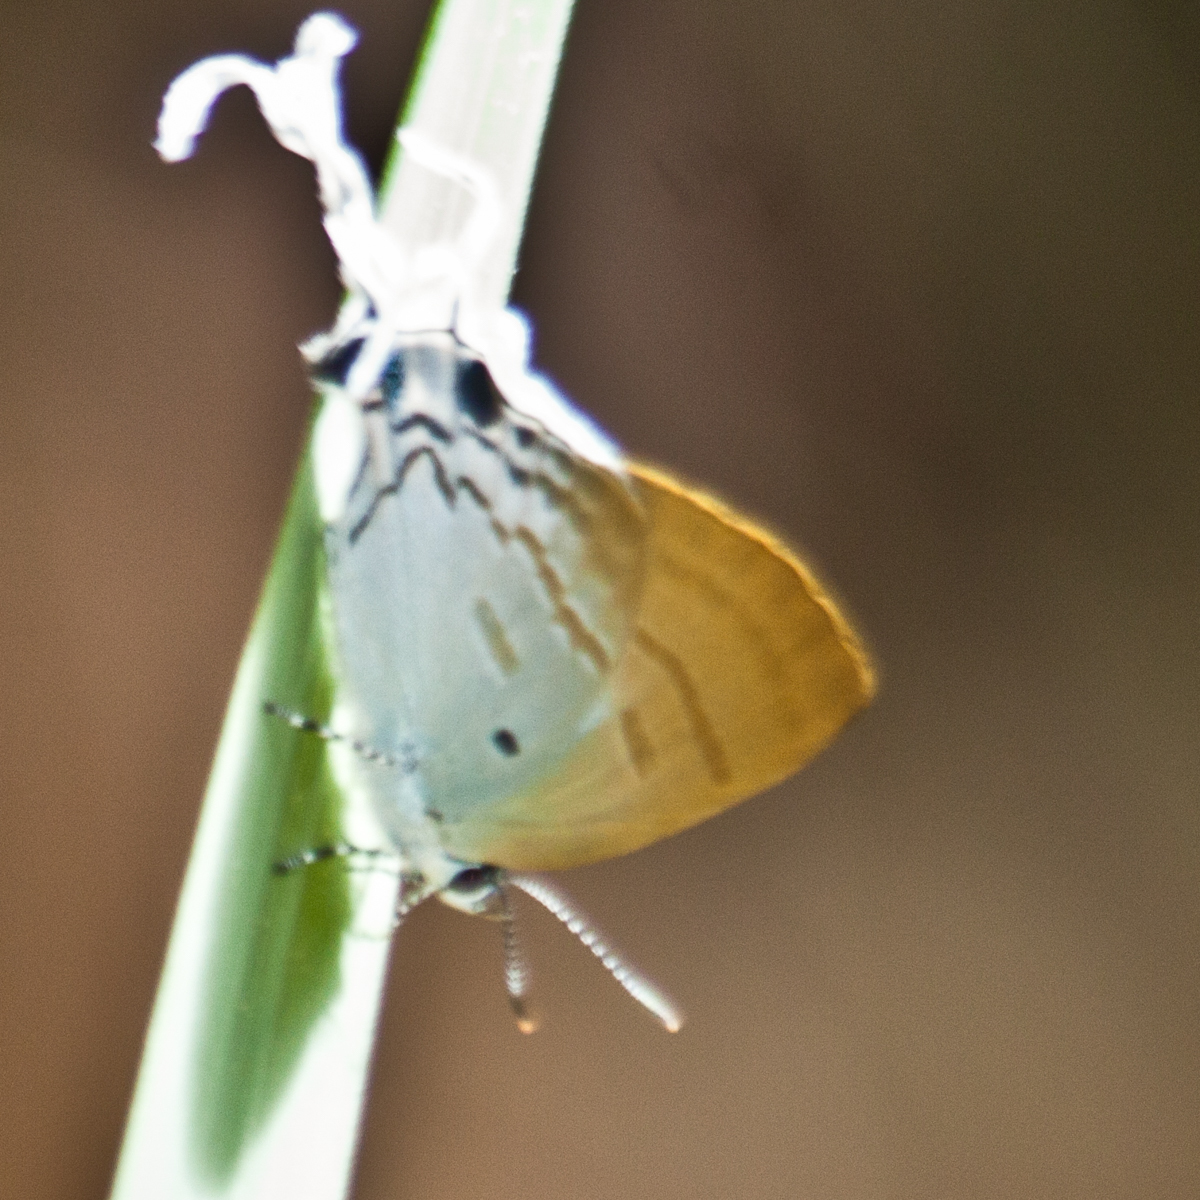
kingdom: Animalia
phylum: Arthropoda
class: Insecta
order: Lepidoptera
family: Lycaenidae
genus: Zeltus
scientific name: Zeltus amasa
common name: Fluffy tit
